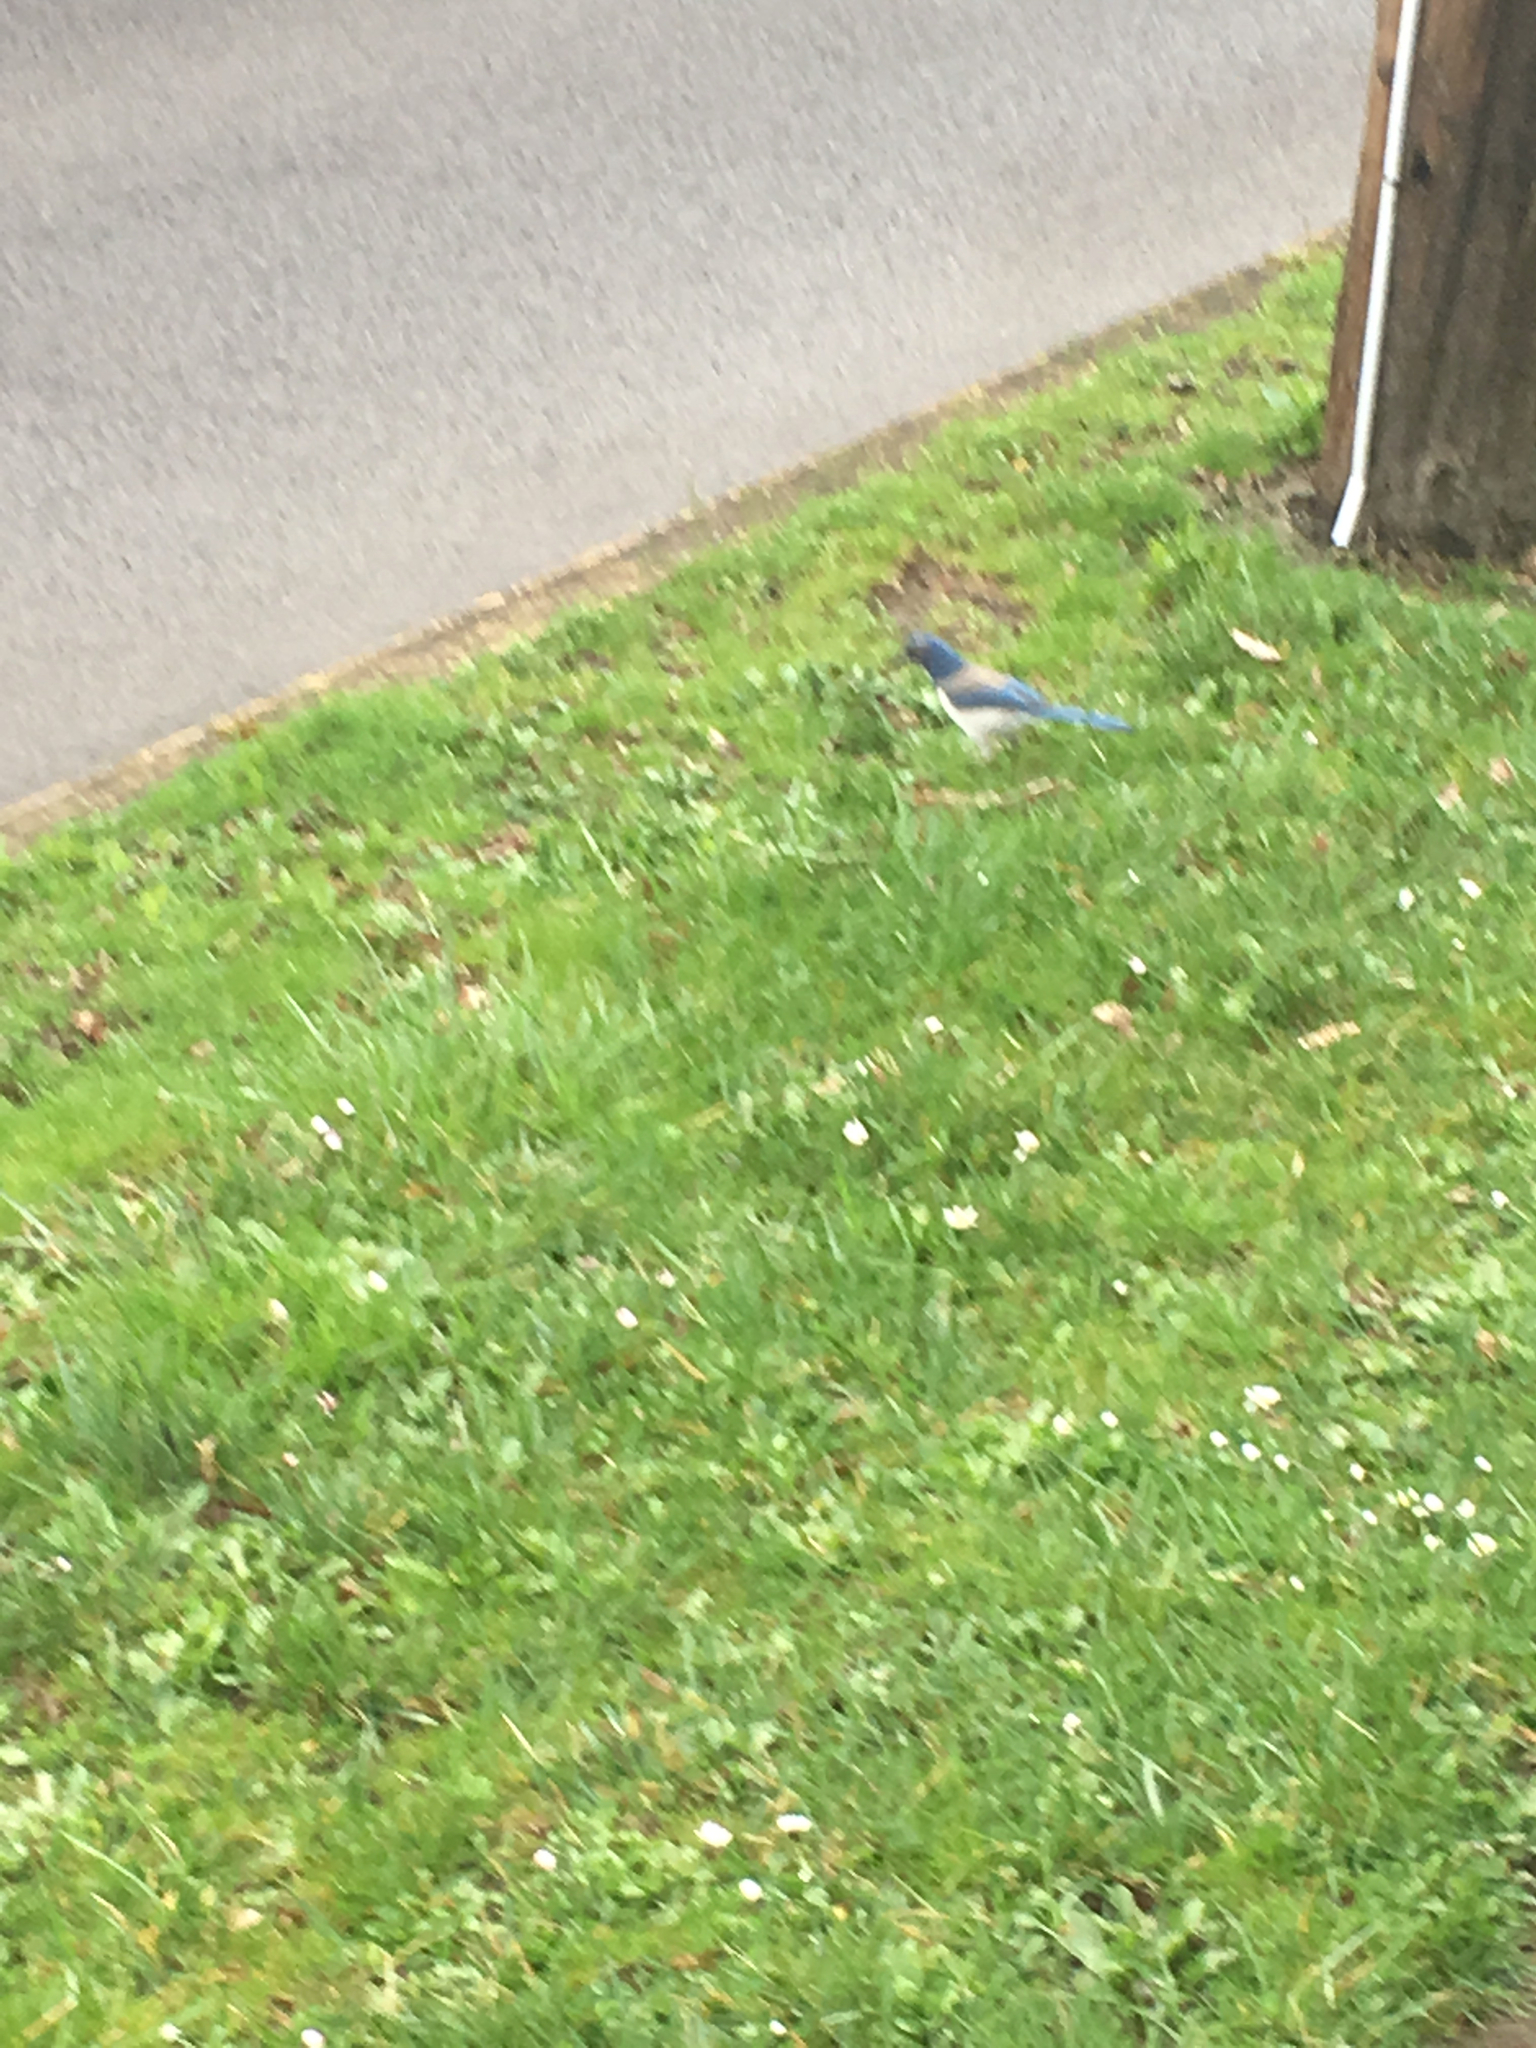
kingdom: Animalia
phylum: Chordata
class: Aves
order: Passeriformes
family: Corvidae
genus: Aphelocoma
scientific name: Aphelocoma californica
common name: California scrub-jay
